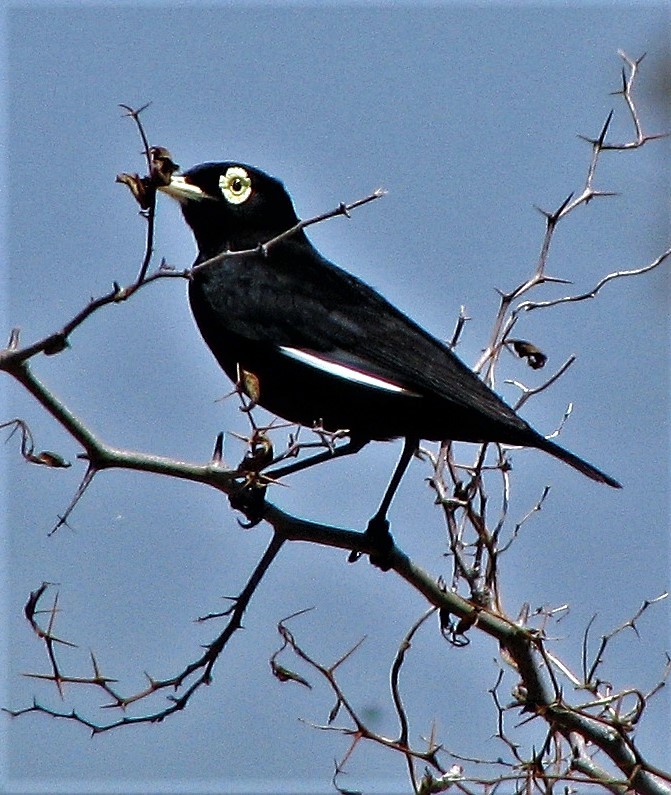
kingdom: Animalia
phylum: Chordata
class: Aves
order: Passeriformes
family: Tyrannidae
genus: Hymenops
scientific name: Hymenops perspicillatus
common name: Spectacled tyrant
